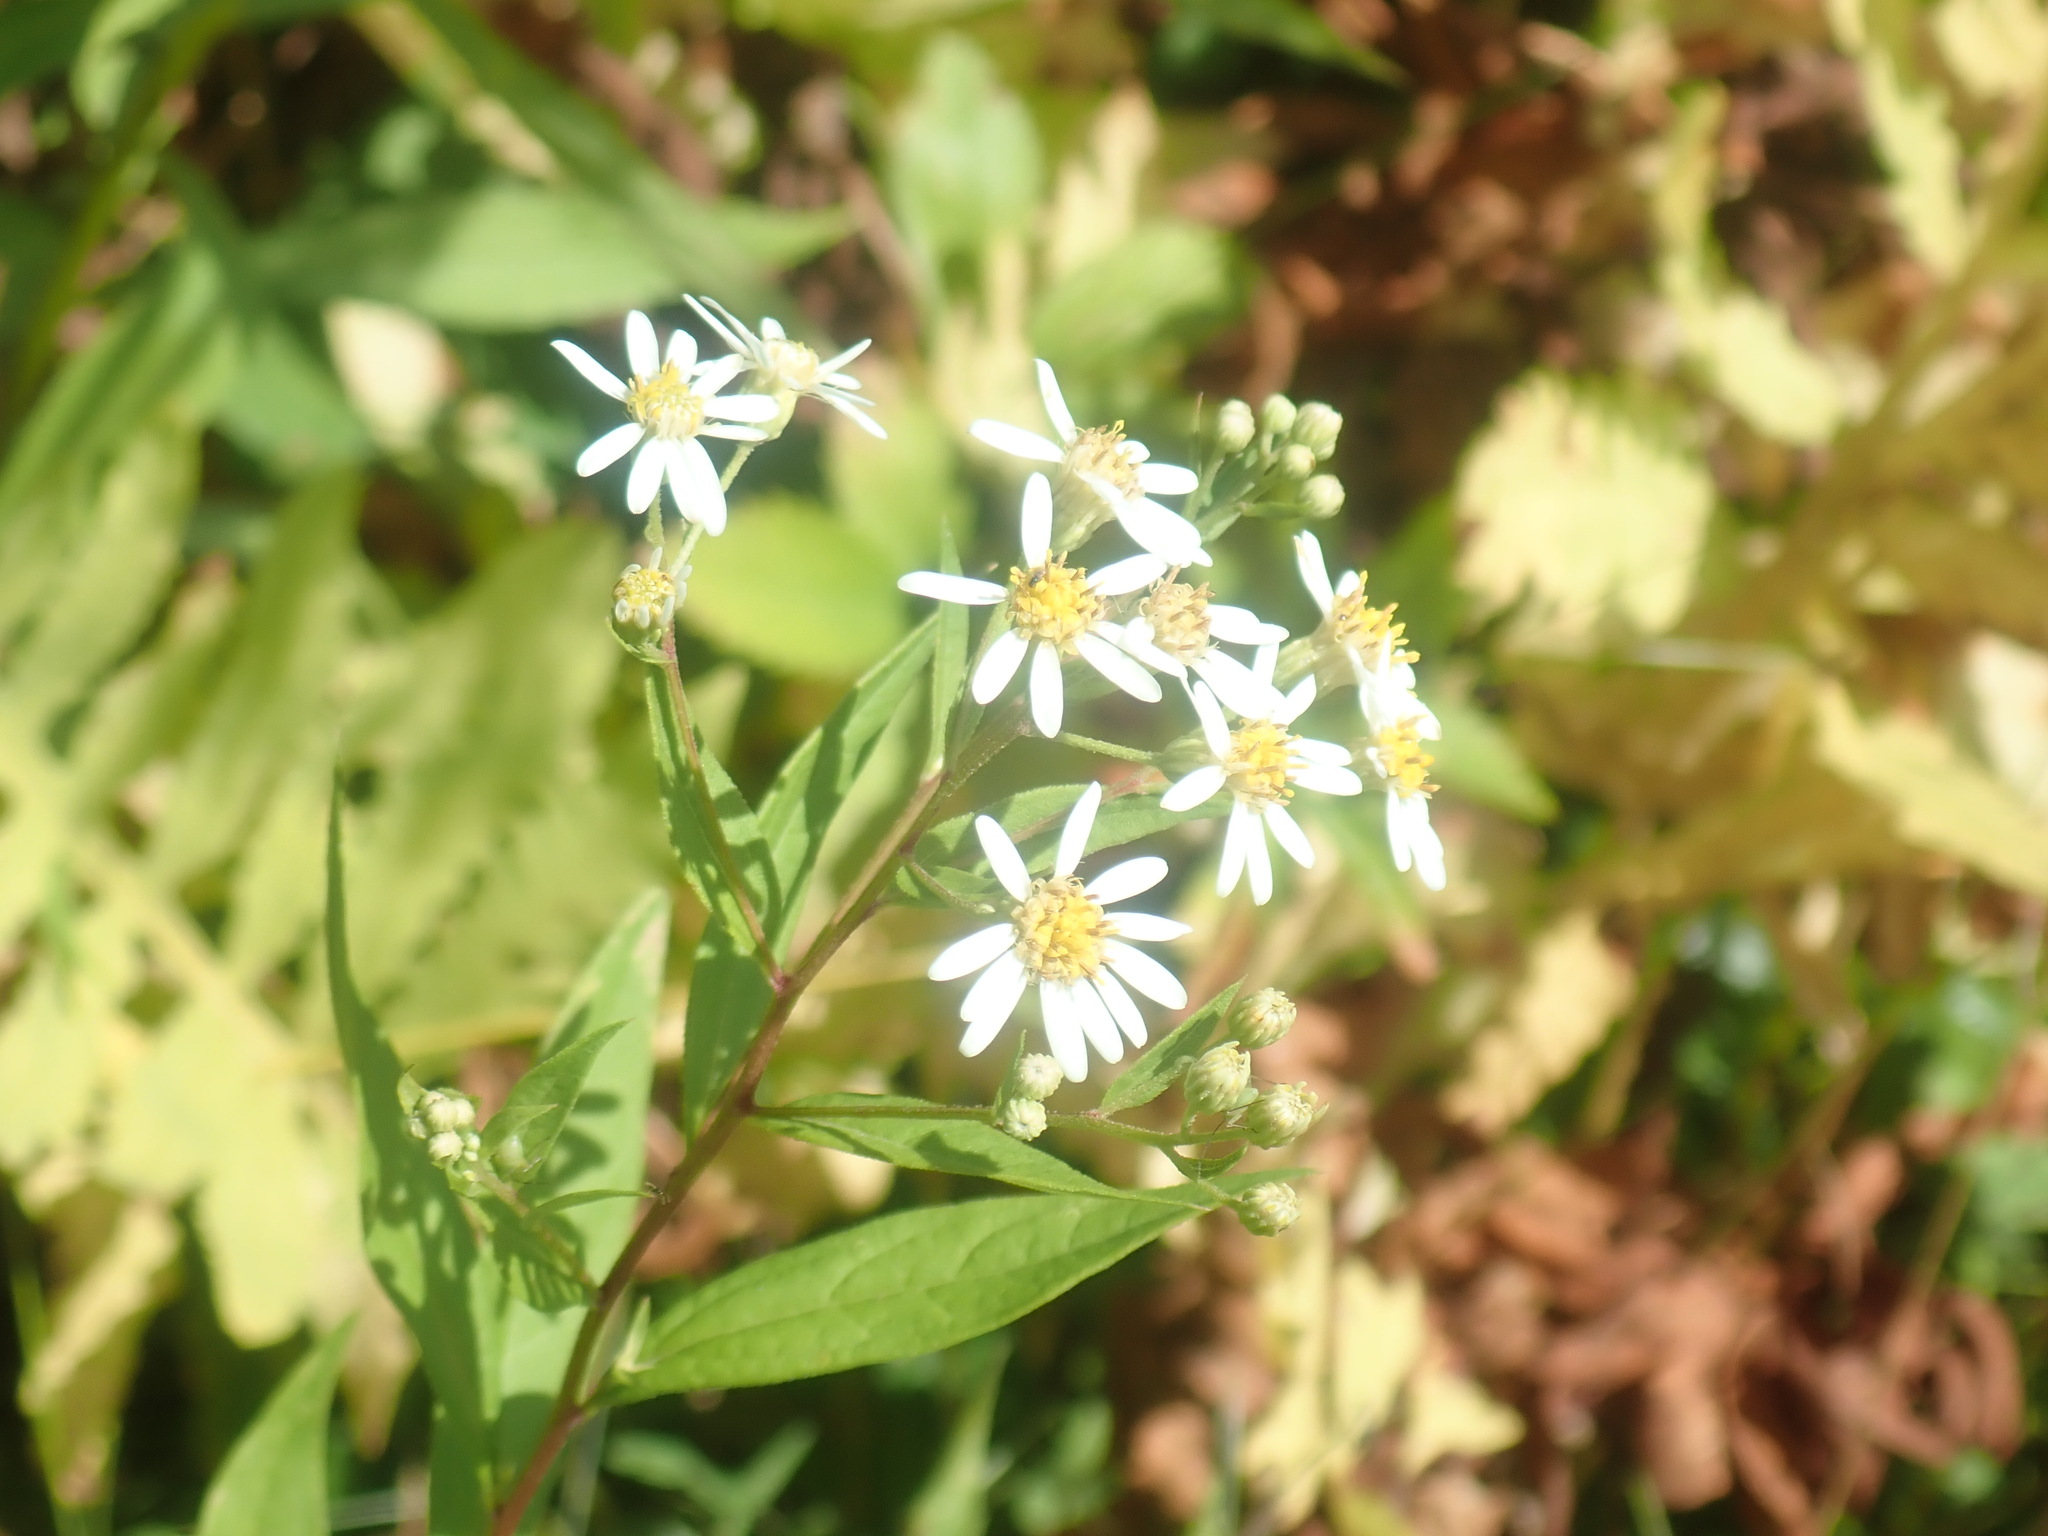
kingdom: Plantae
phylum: Tracheophyta
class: Magnoliopsida
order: Asterales
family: Asteraceae
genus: Doellingeria
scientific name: Doellingeria umbellata
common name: Flat-top white aster
